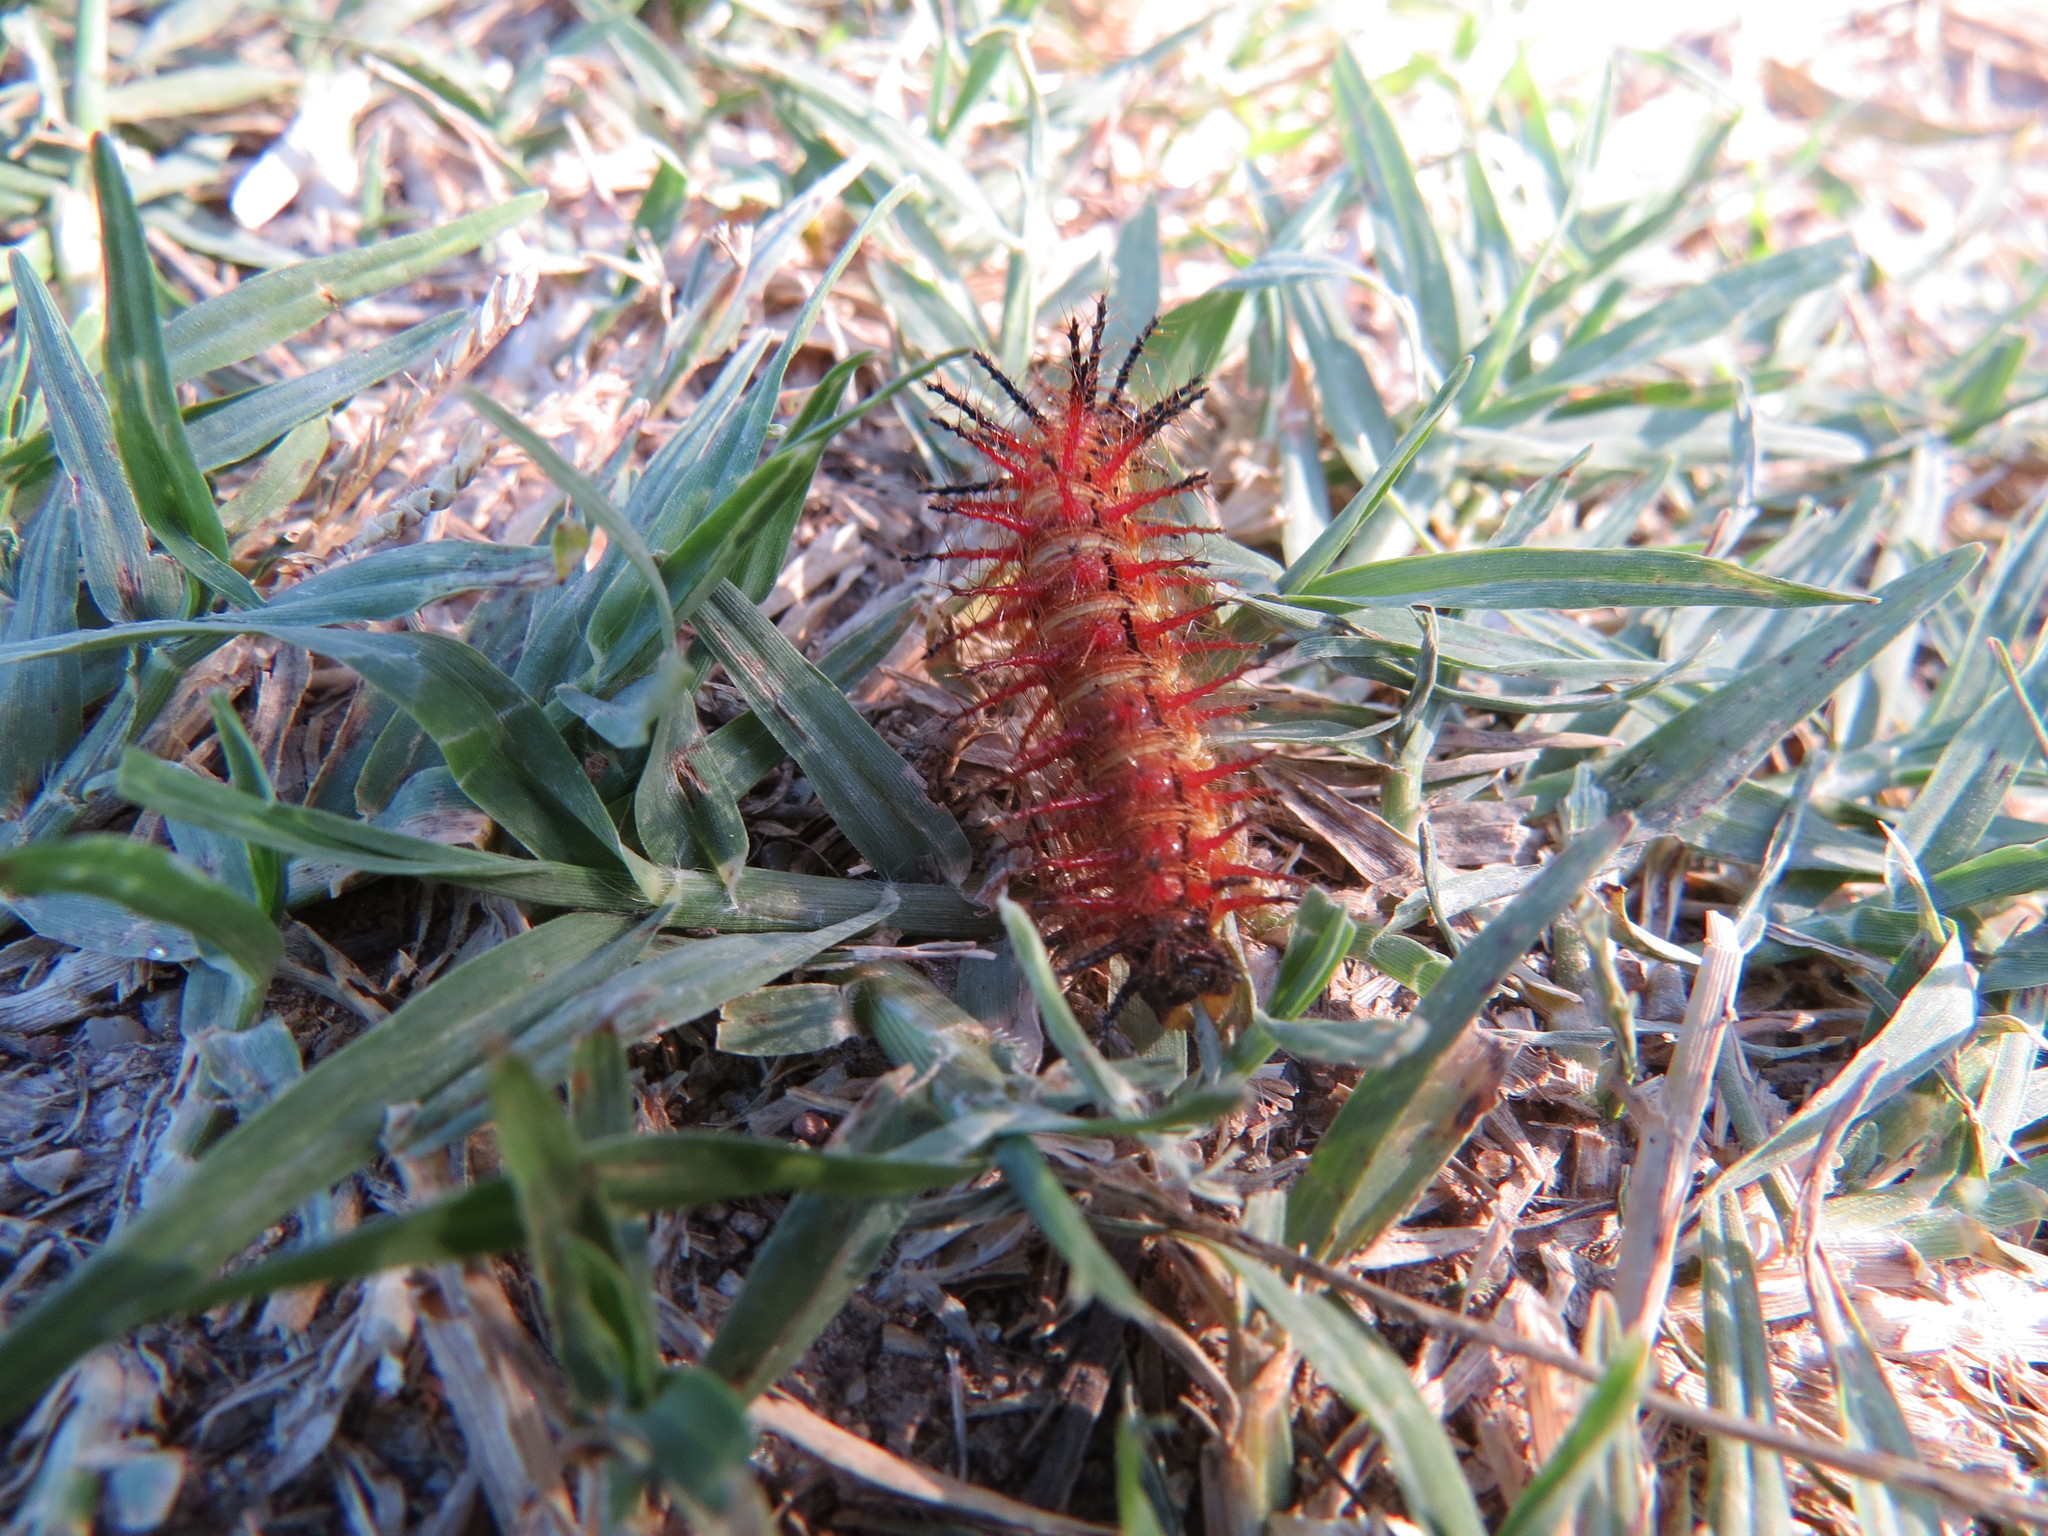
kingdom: Animalia
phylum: Arthropoda
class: Insecta
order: Lepidoptera
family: Nymphalidae
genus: Acraea
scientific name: Acraea momina
